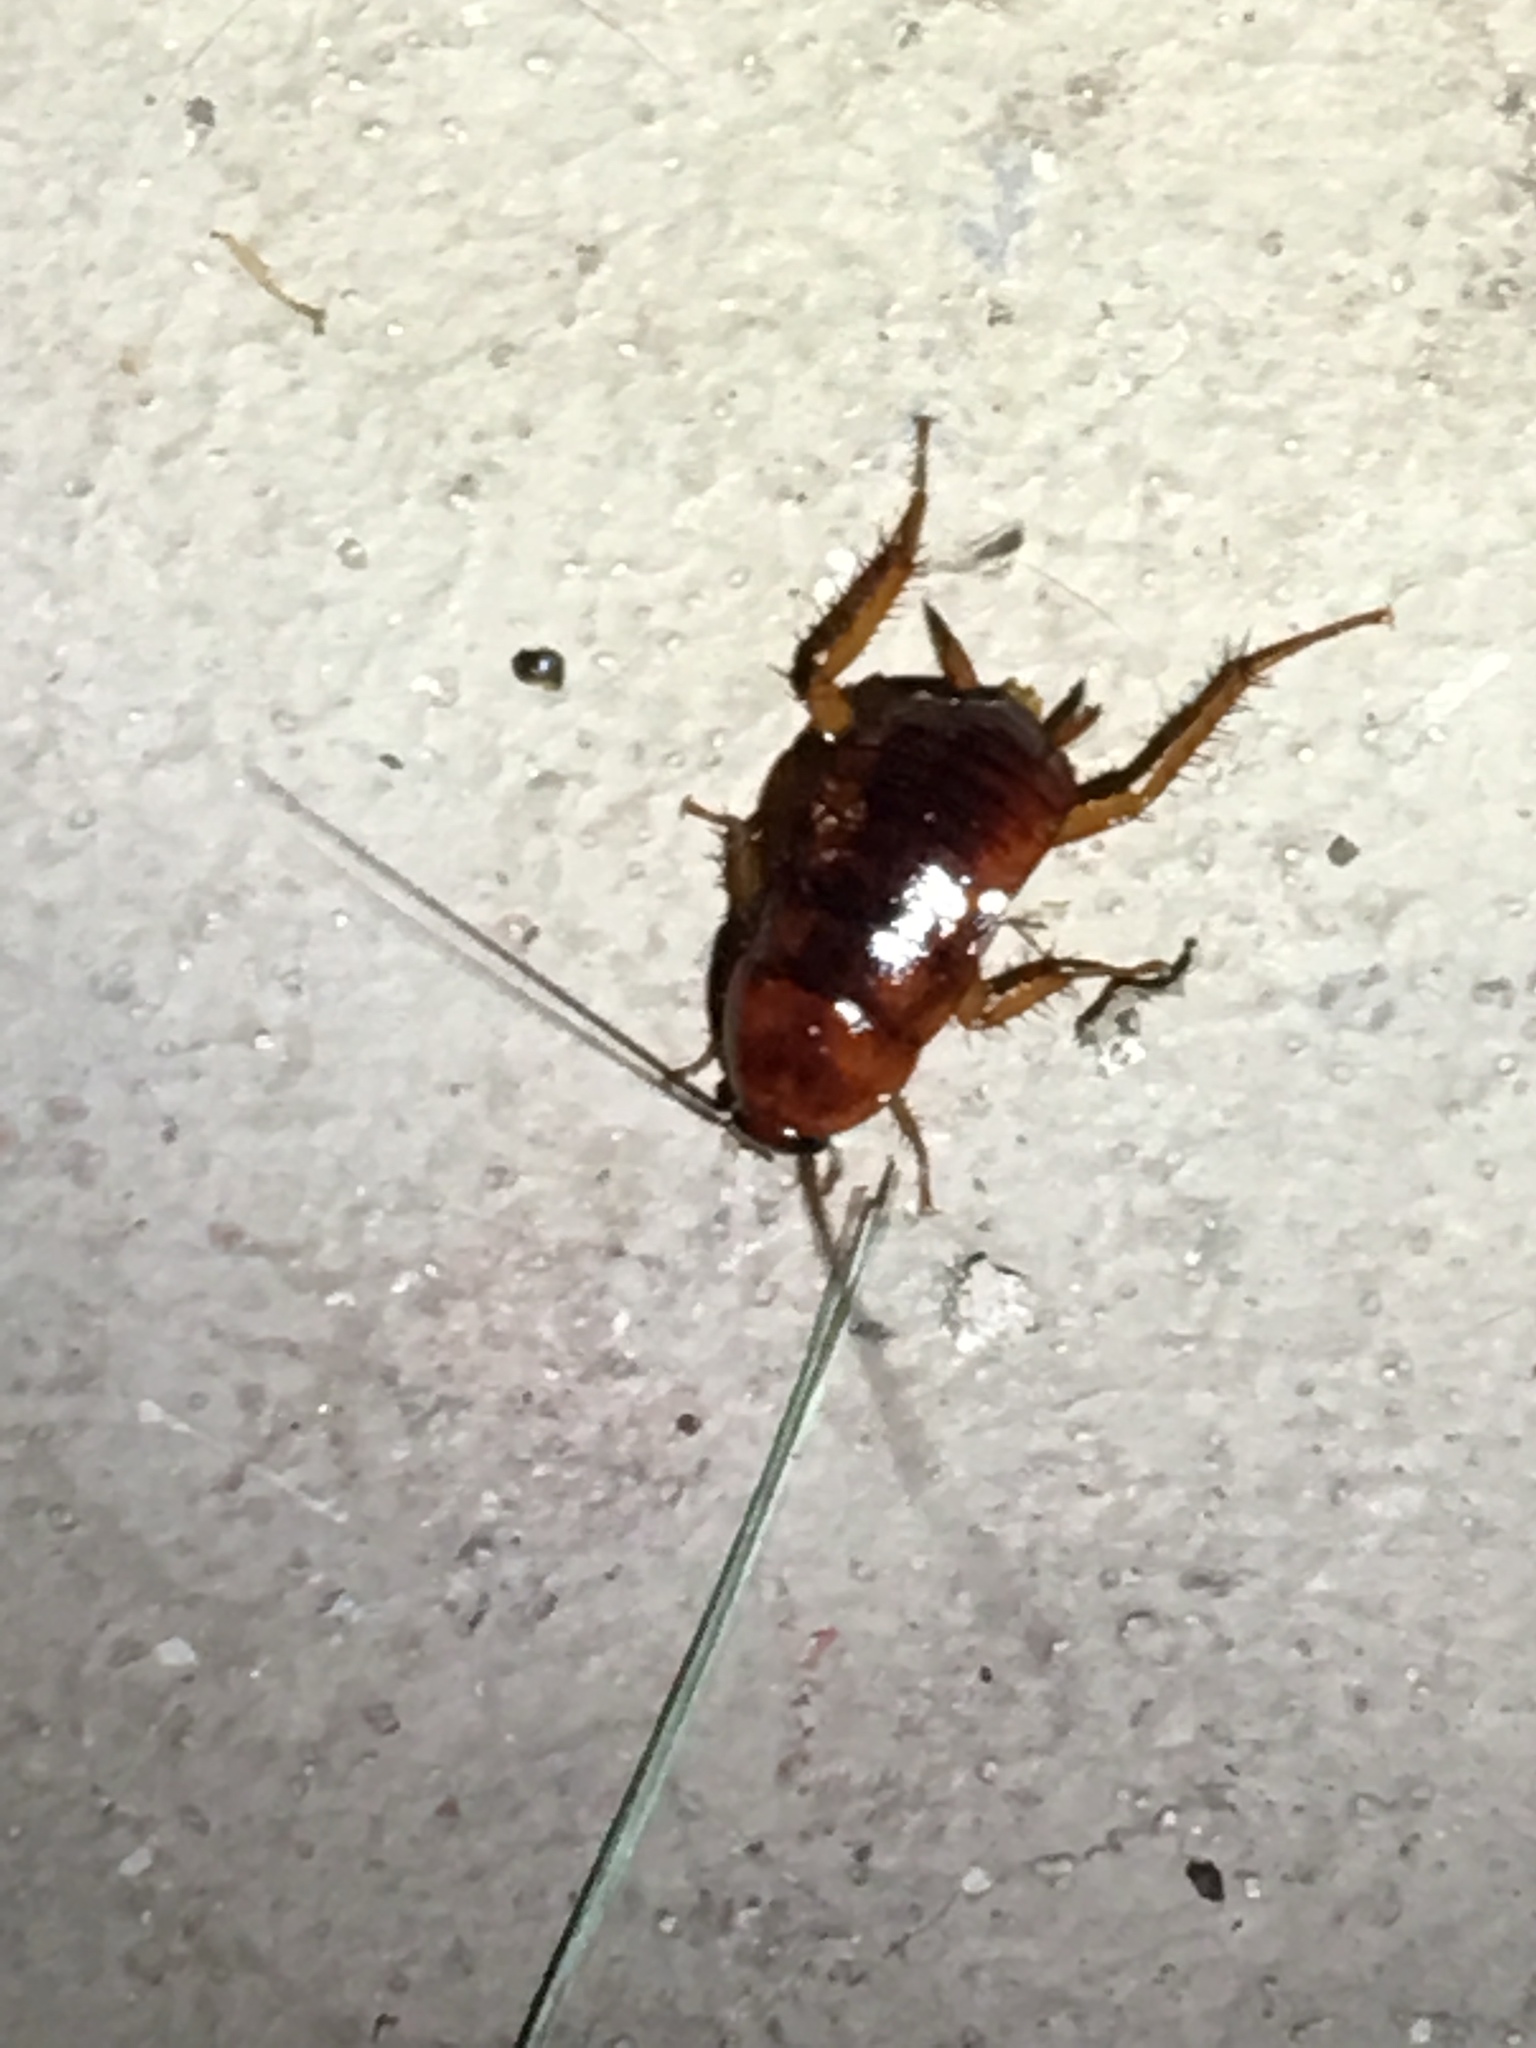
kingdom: Animalia
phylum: Arthropoda
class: Insecta
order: Blattodea
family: Blattidae
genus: Periplaneta
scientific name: Periplaneta fuliginosa
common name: Smokeybrown cockroad
